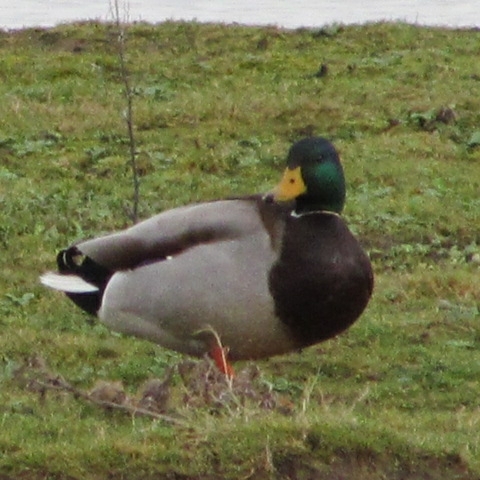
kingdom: Animalia
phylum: Chordata
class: Aves
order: Anseriformes
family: Anatidae
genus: Anas
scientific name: Anas platyrhynchos
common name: Mallard
